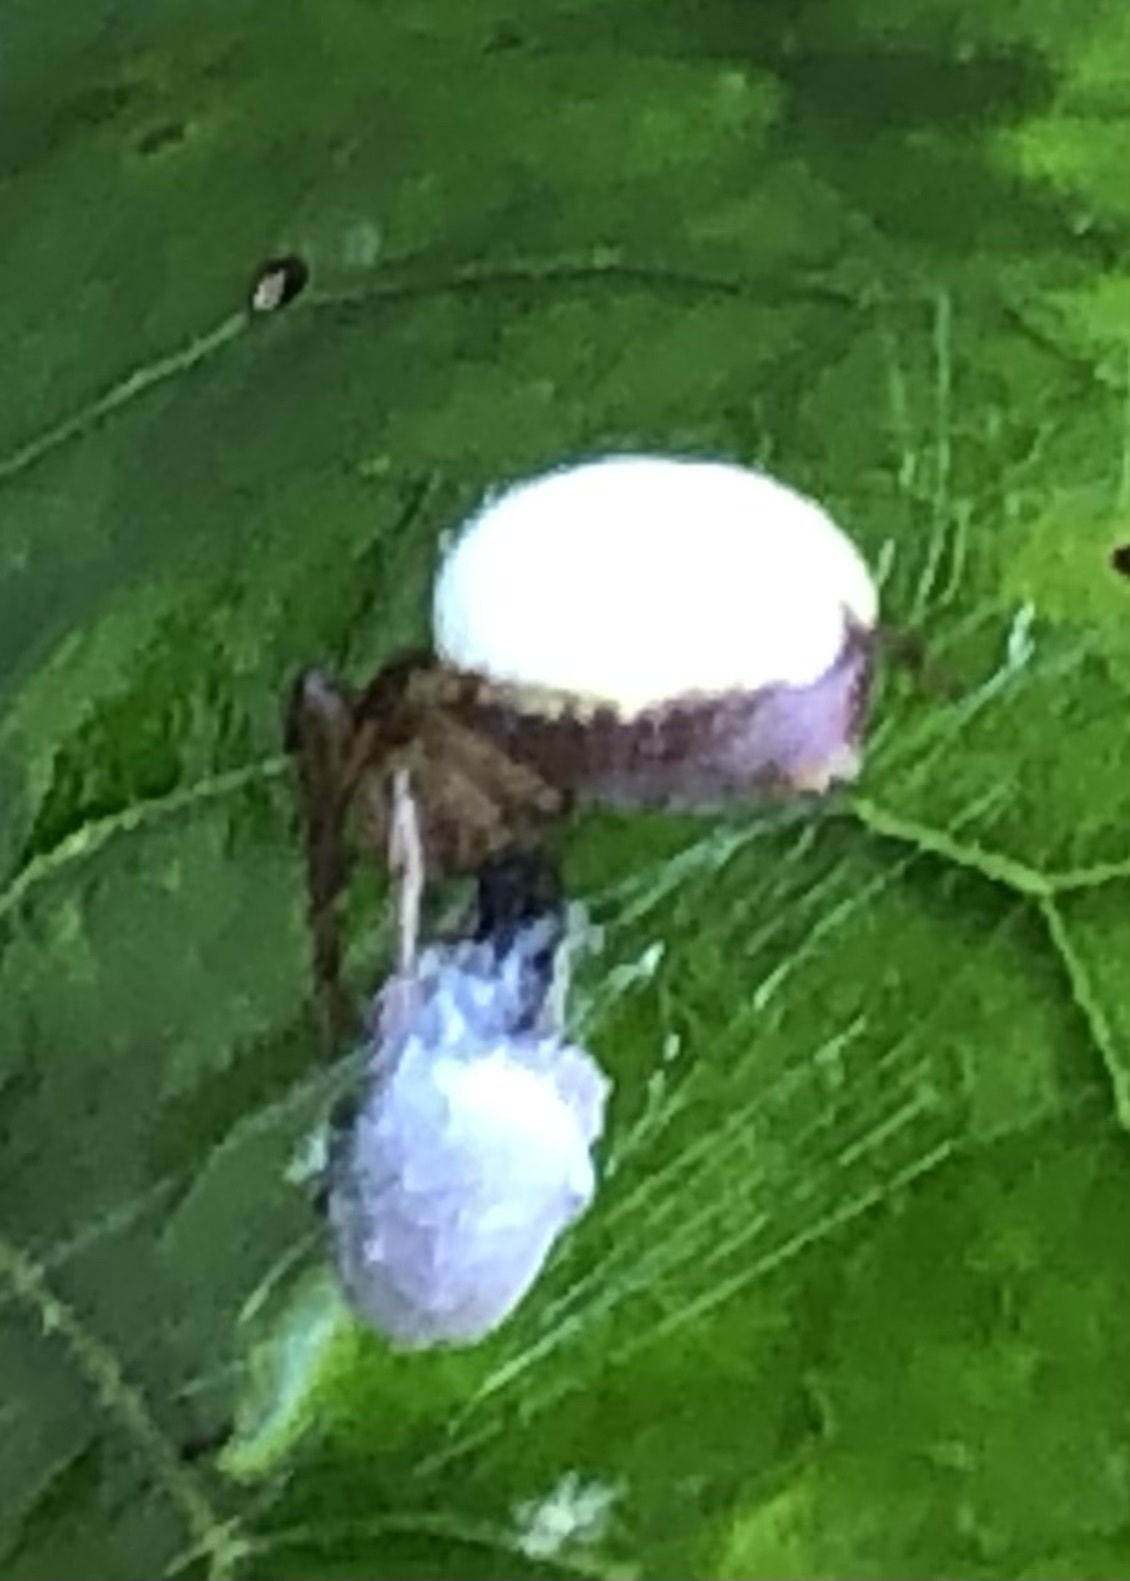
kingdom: Animalia
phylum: Arthropoda
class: Arachnida
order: Araneae
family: Araneidae
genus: Araniella
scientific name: Araniella displicata
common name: Sixspotted orb weaver
